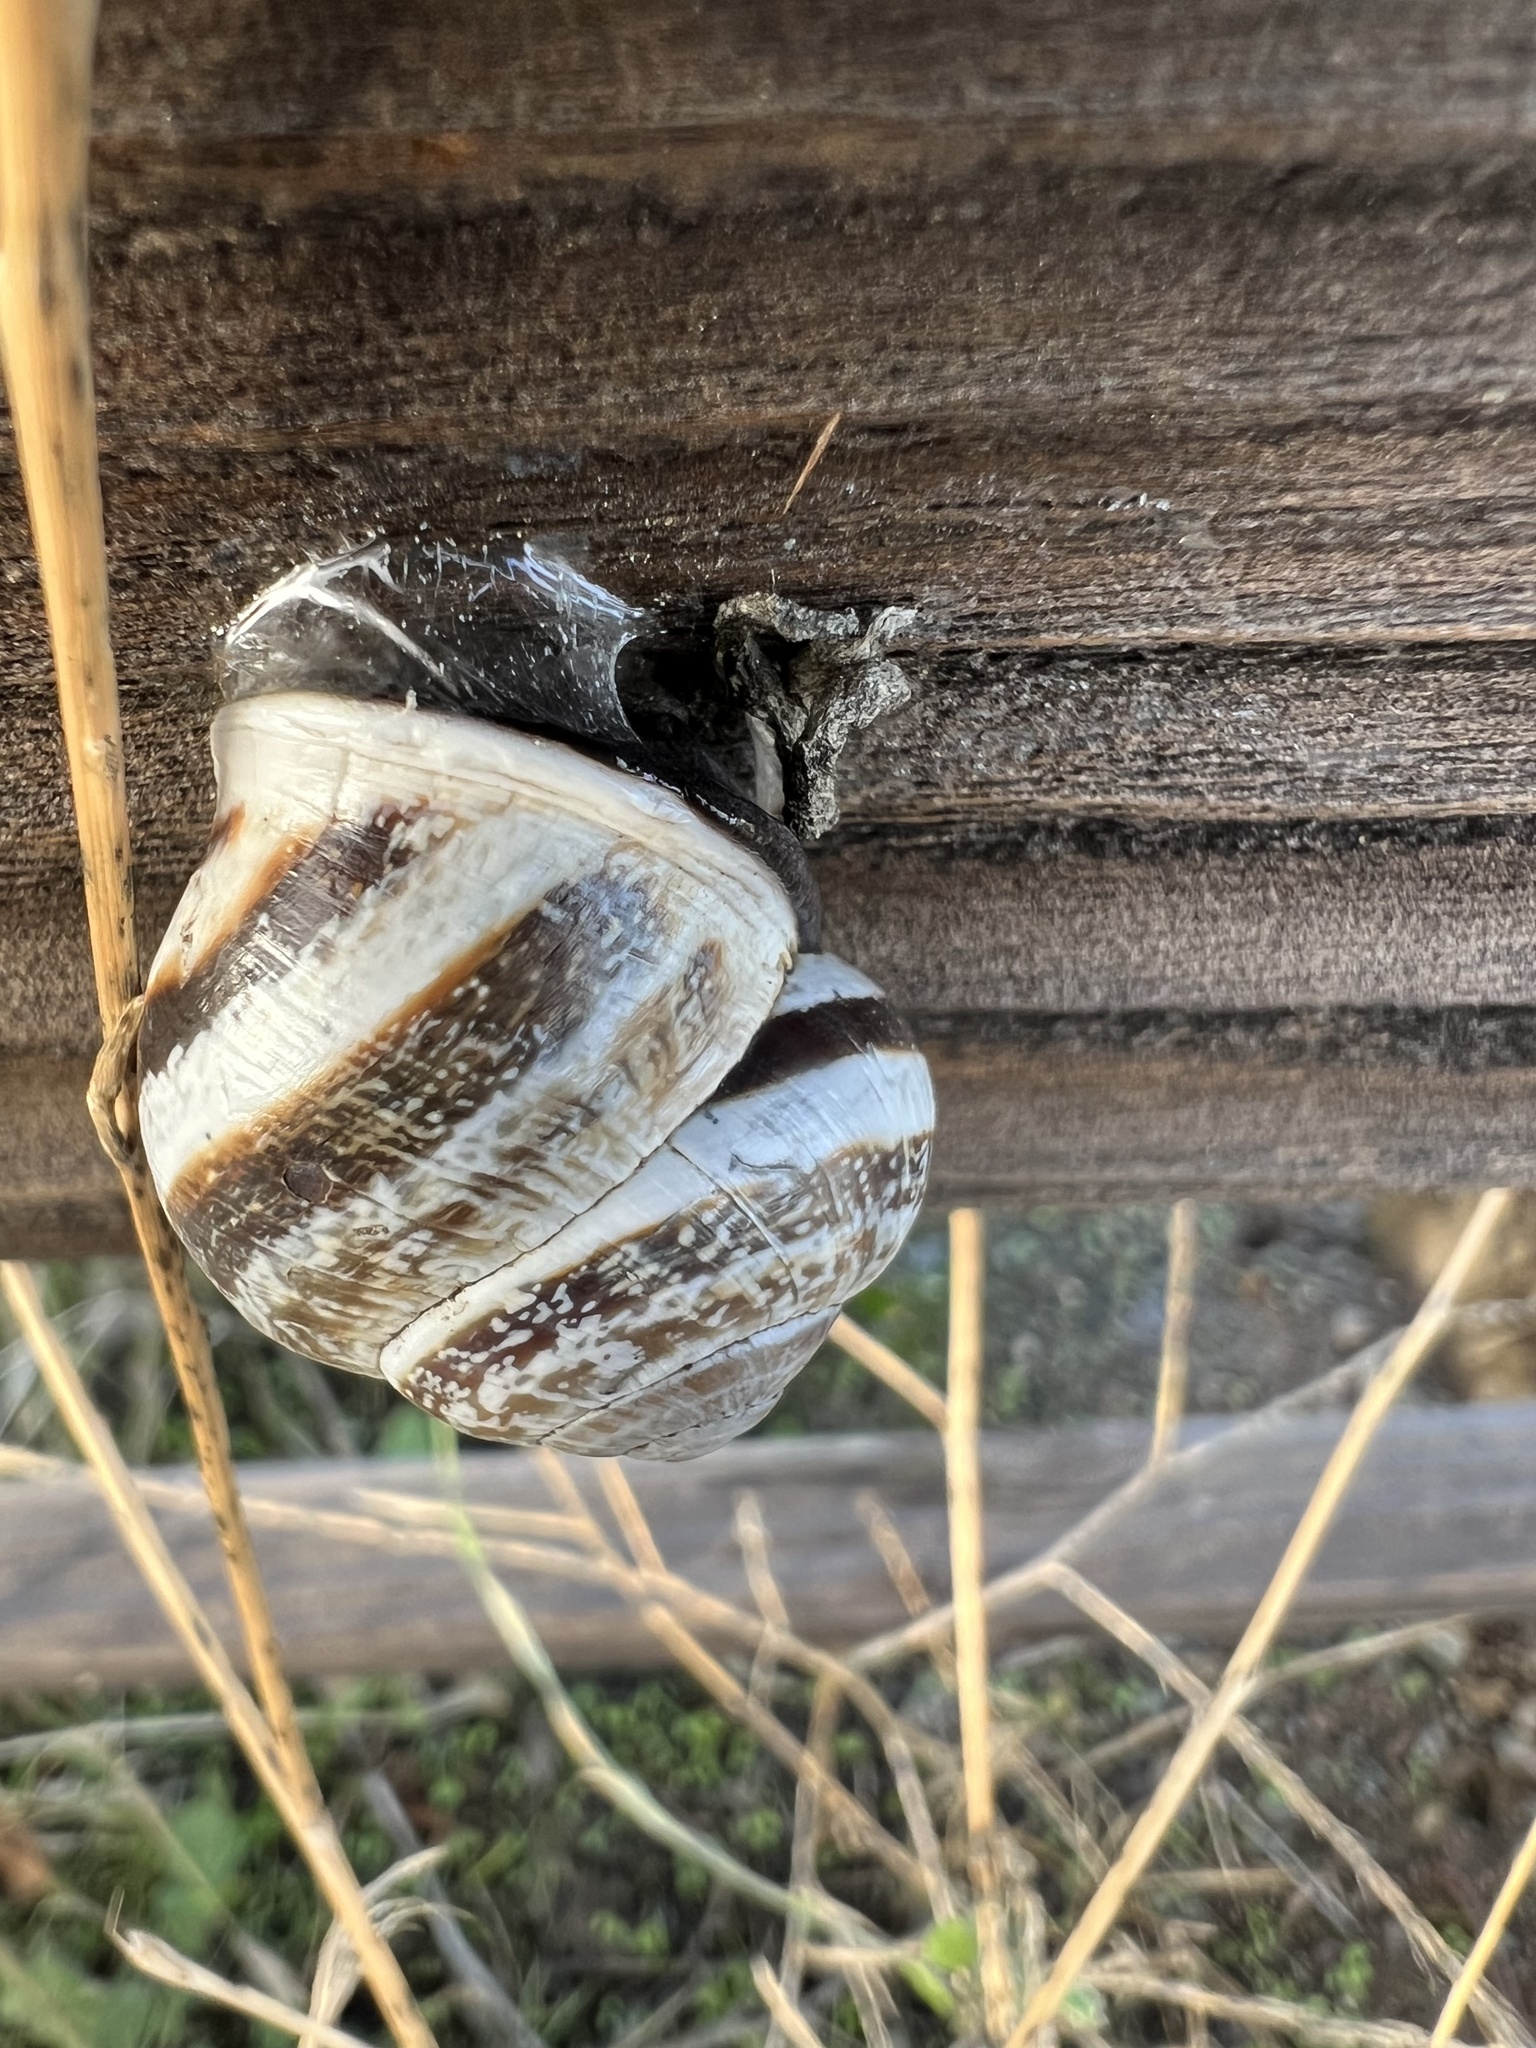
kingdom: Animalia
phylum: Mollusca
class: Gastropoda
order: Stylommatophora
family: Helicidae
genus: Otala
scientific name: Otala lactea
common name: Milk snail
